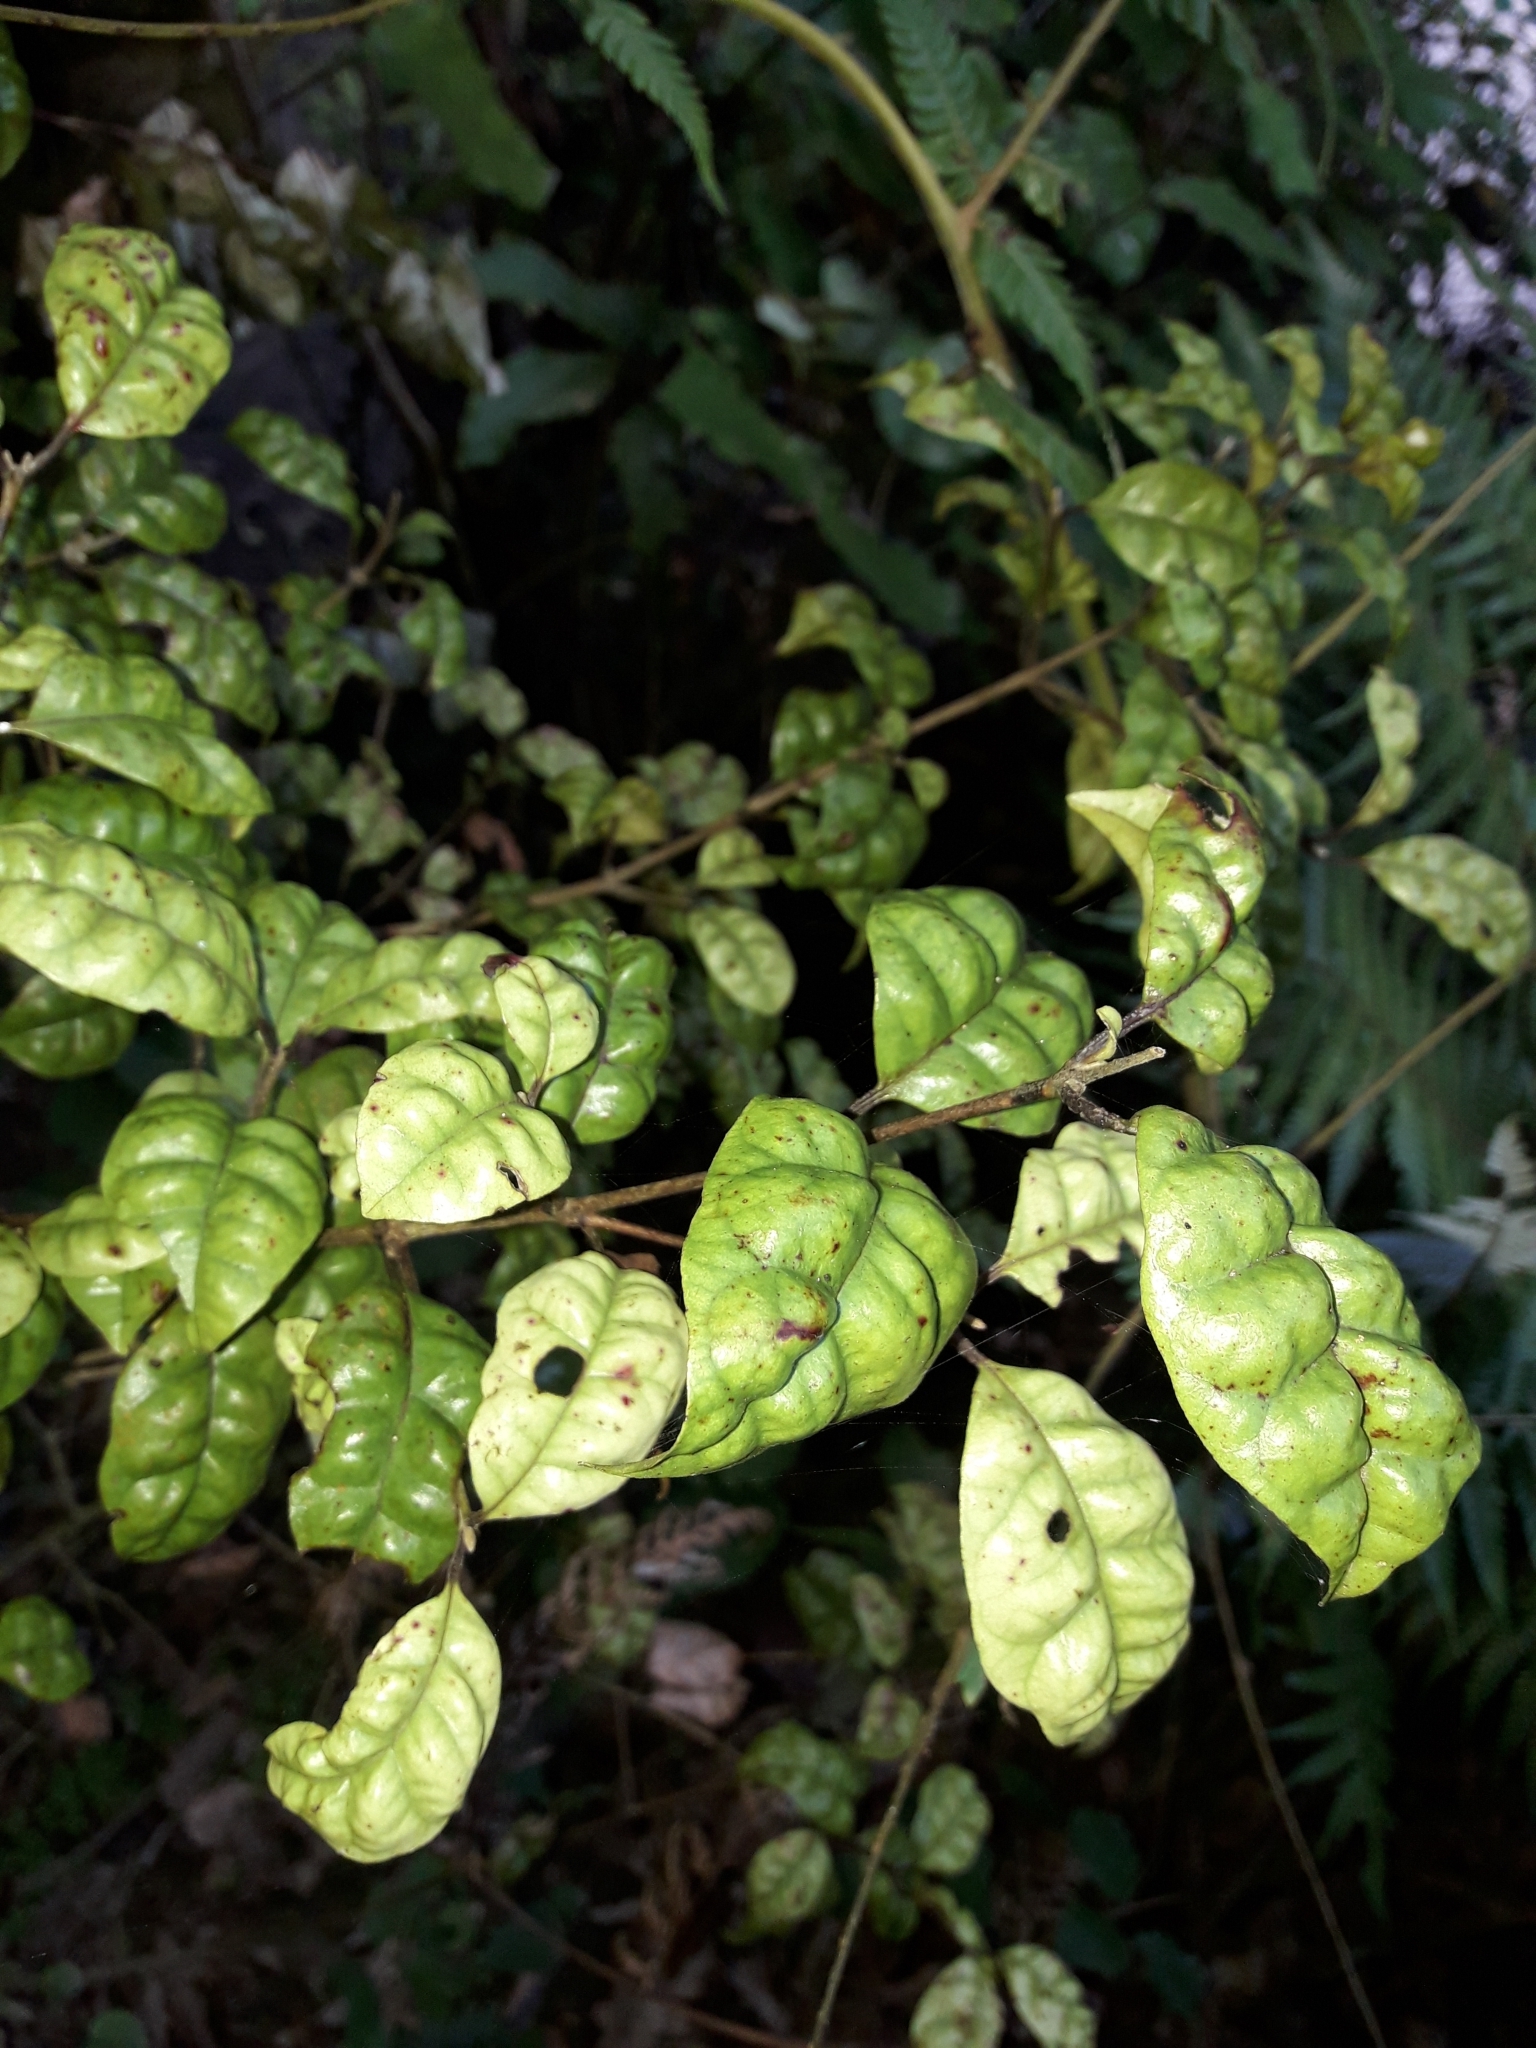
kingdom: Plantae
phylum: Tracheophyta
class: Magnoliopsida
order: Myrtales
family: Myrtaceae
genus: Lophomyrtus
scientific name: Lophomyrtus bullata
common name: Rama rama
